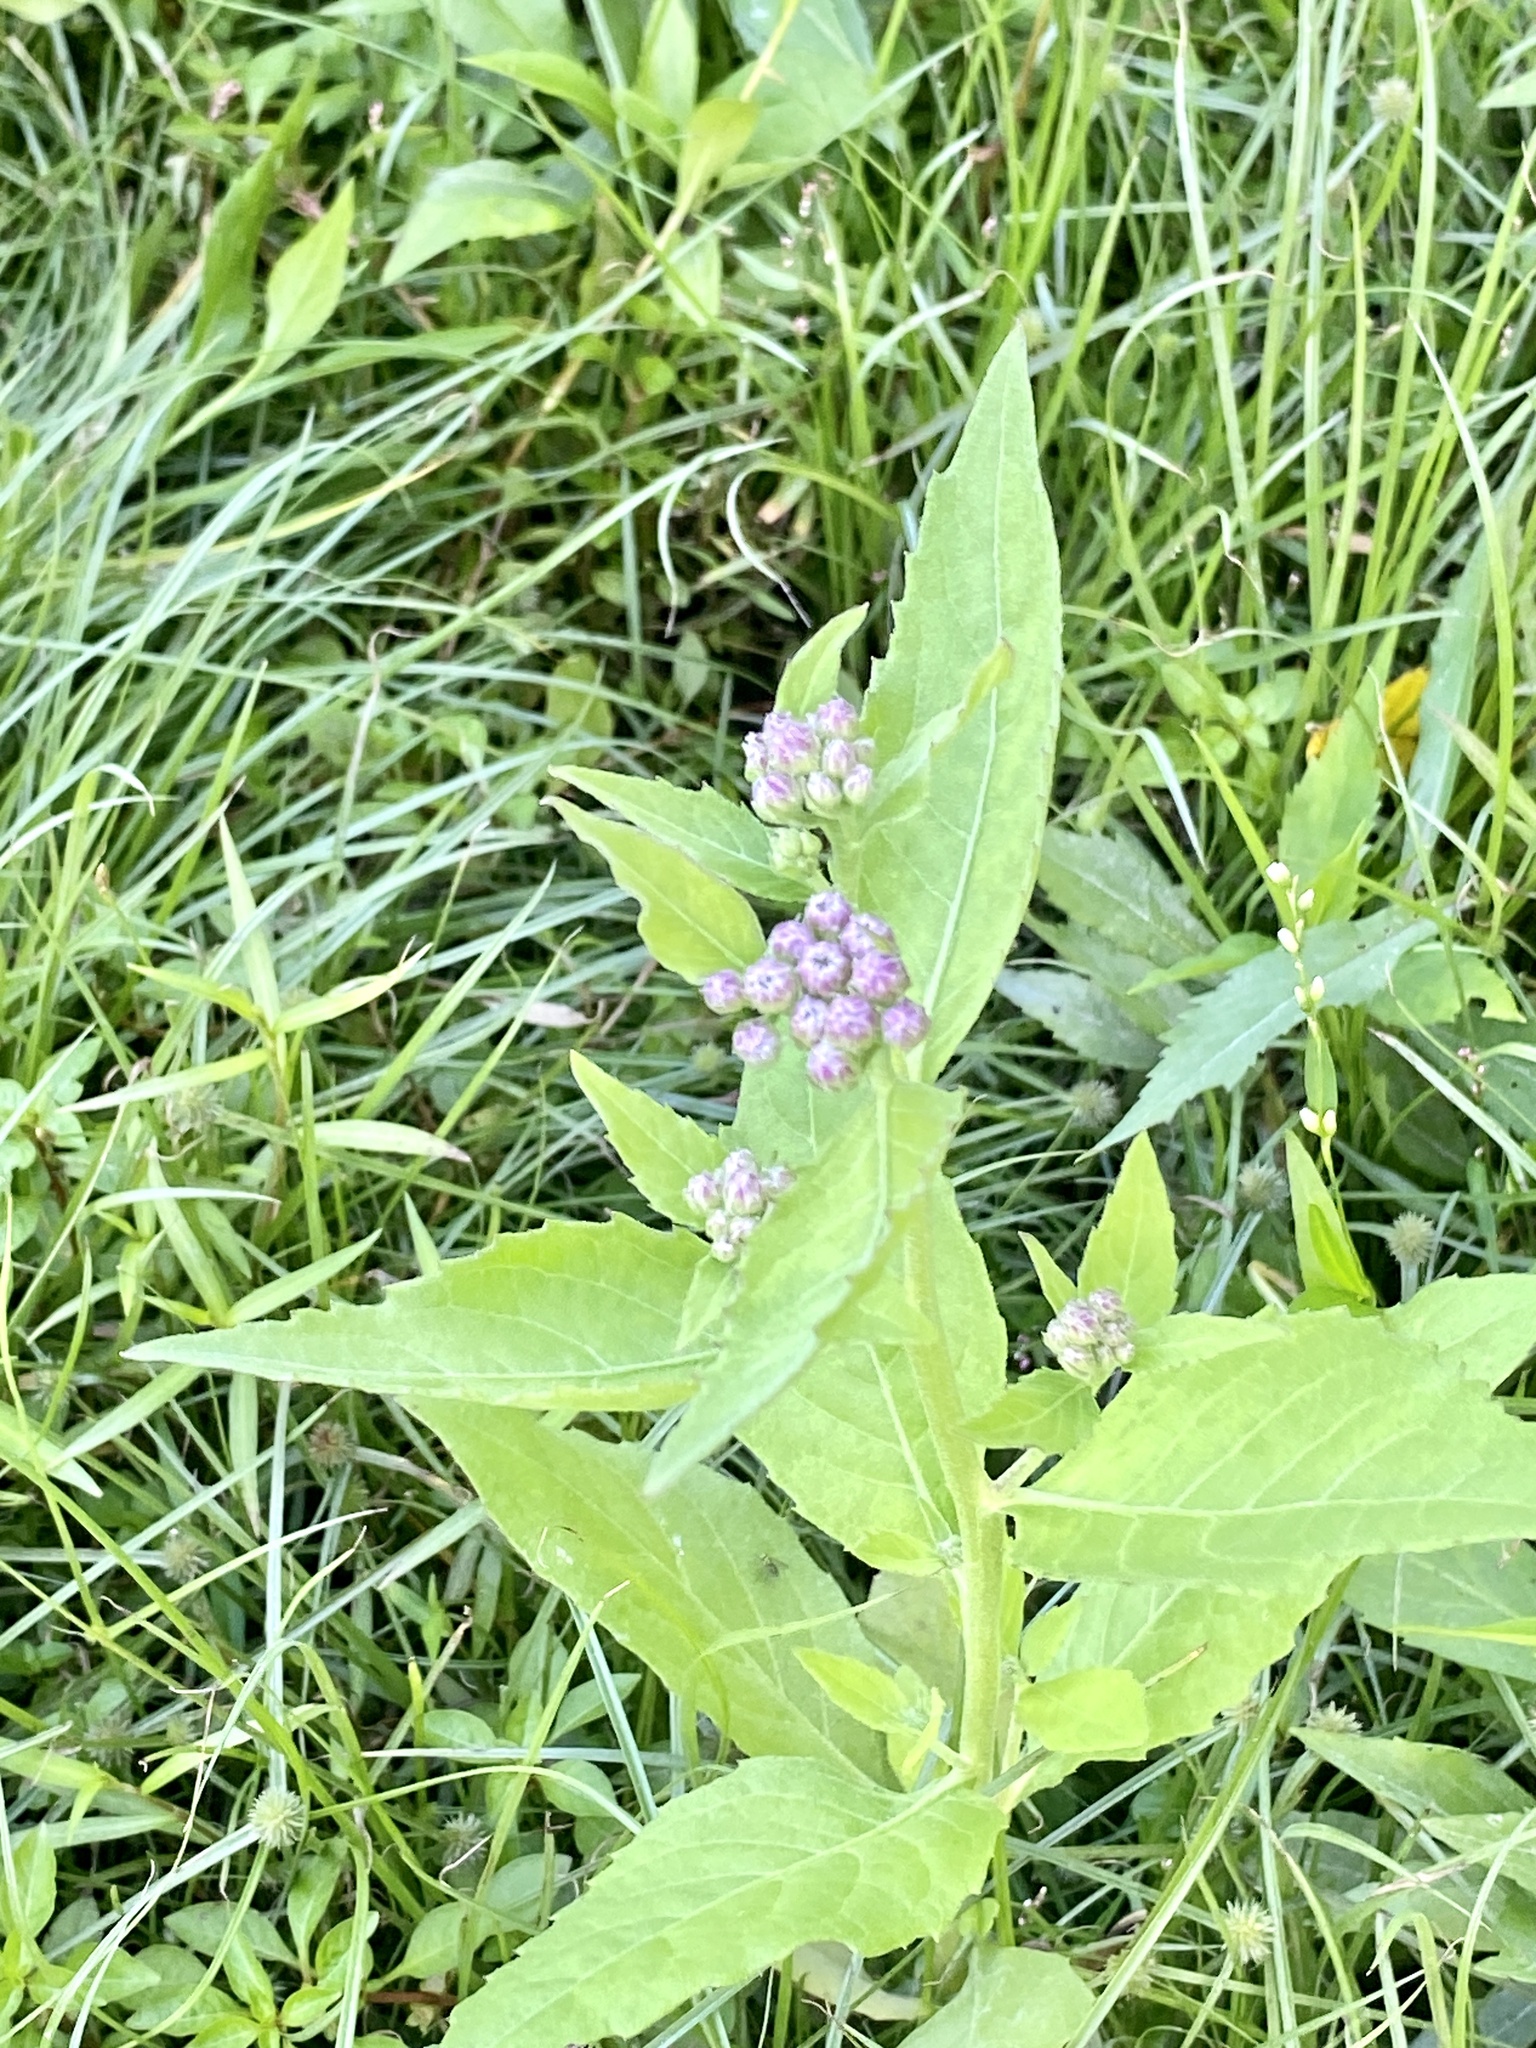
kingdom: Plantae
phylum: Tracheophyta
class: Magnoliopsida
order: Asterales
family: Asteraceae
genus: Pluchea
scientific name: Pluchea odorata
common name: Saltmarsh fleabane
